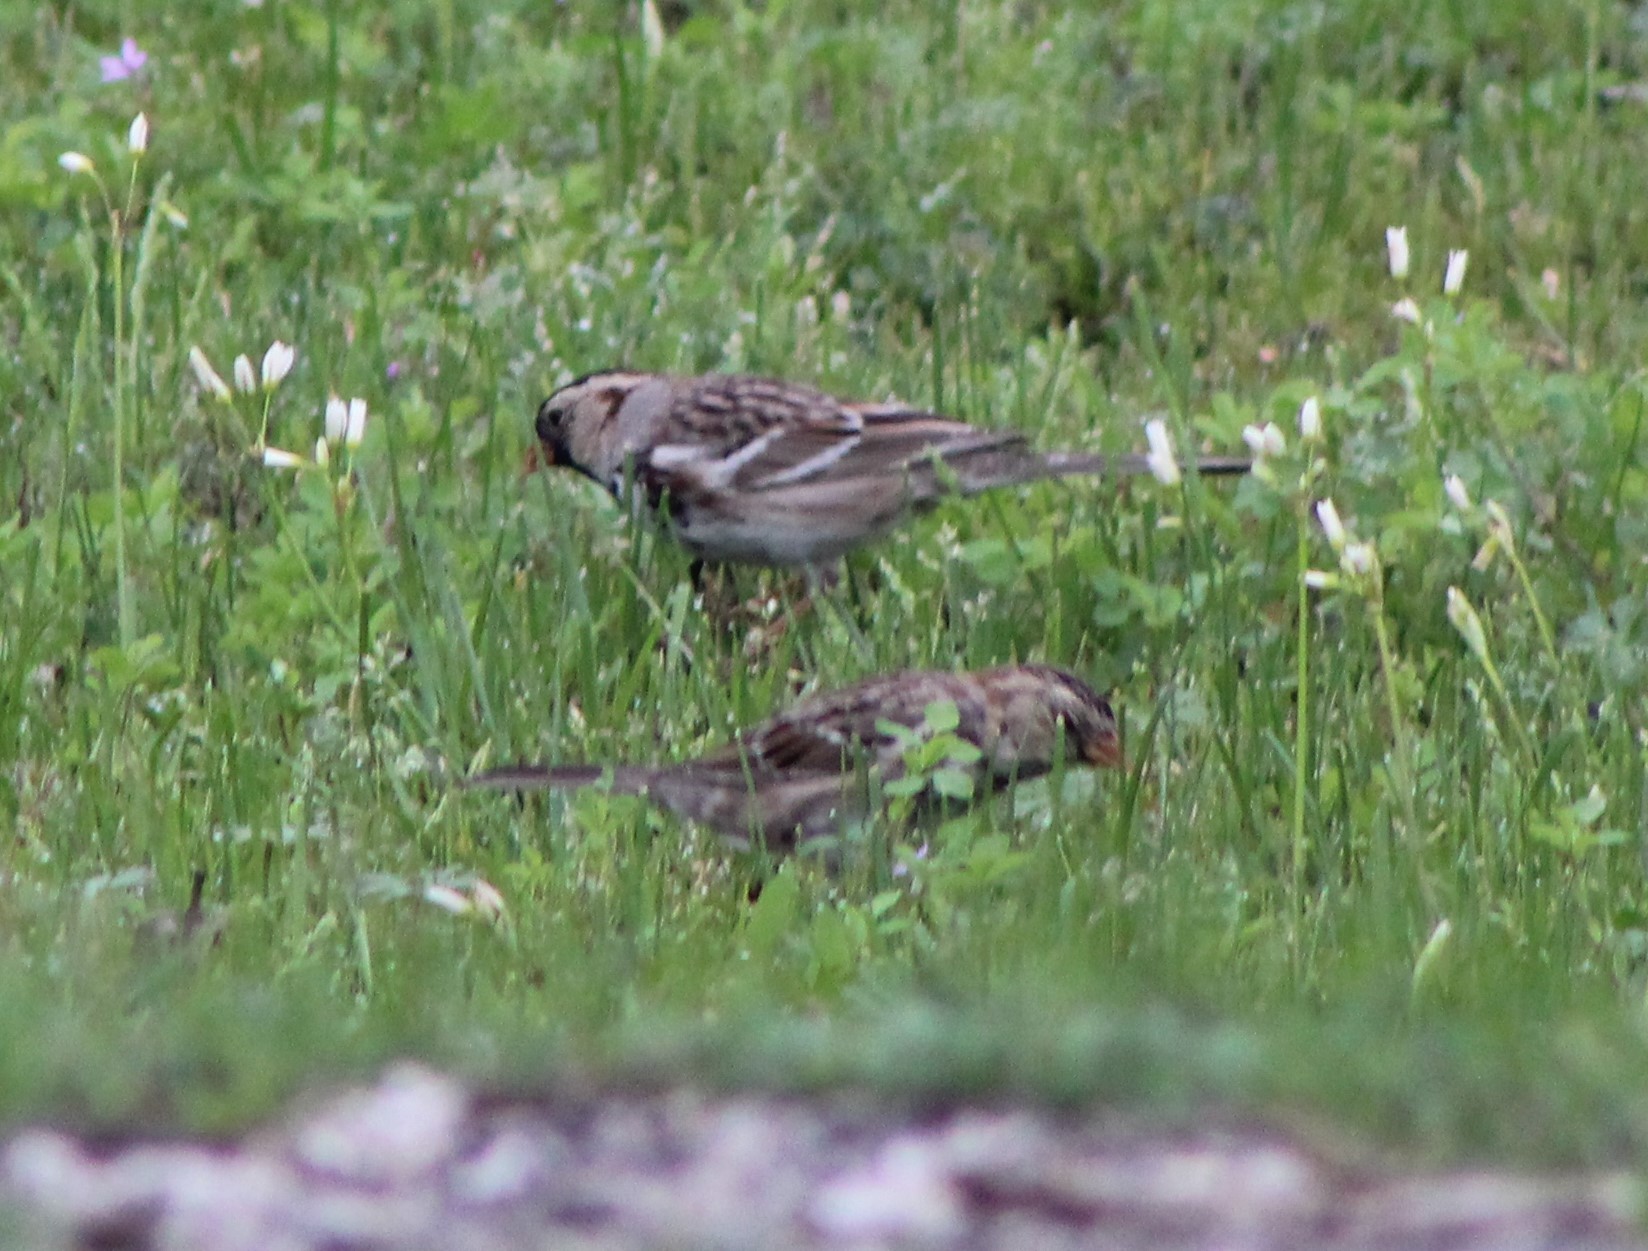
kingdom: Animalia
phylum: Chordata
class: Aves
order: Passeriformes
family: Passerellidae
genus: Zonotrichia
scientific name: Zonotrichia querula
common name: Harris's sparrow
